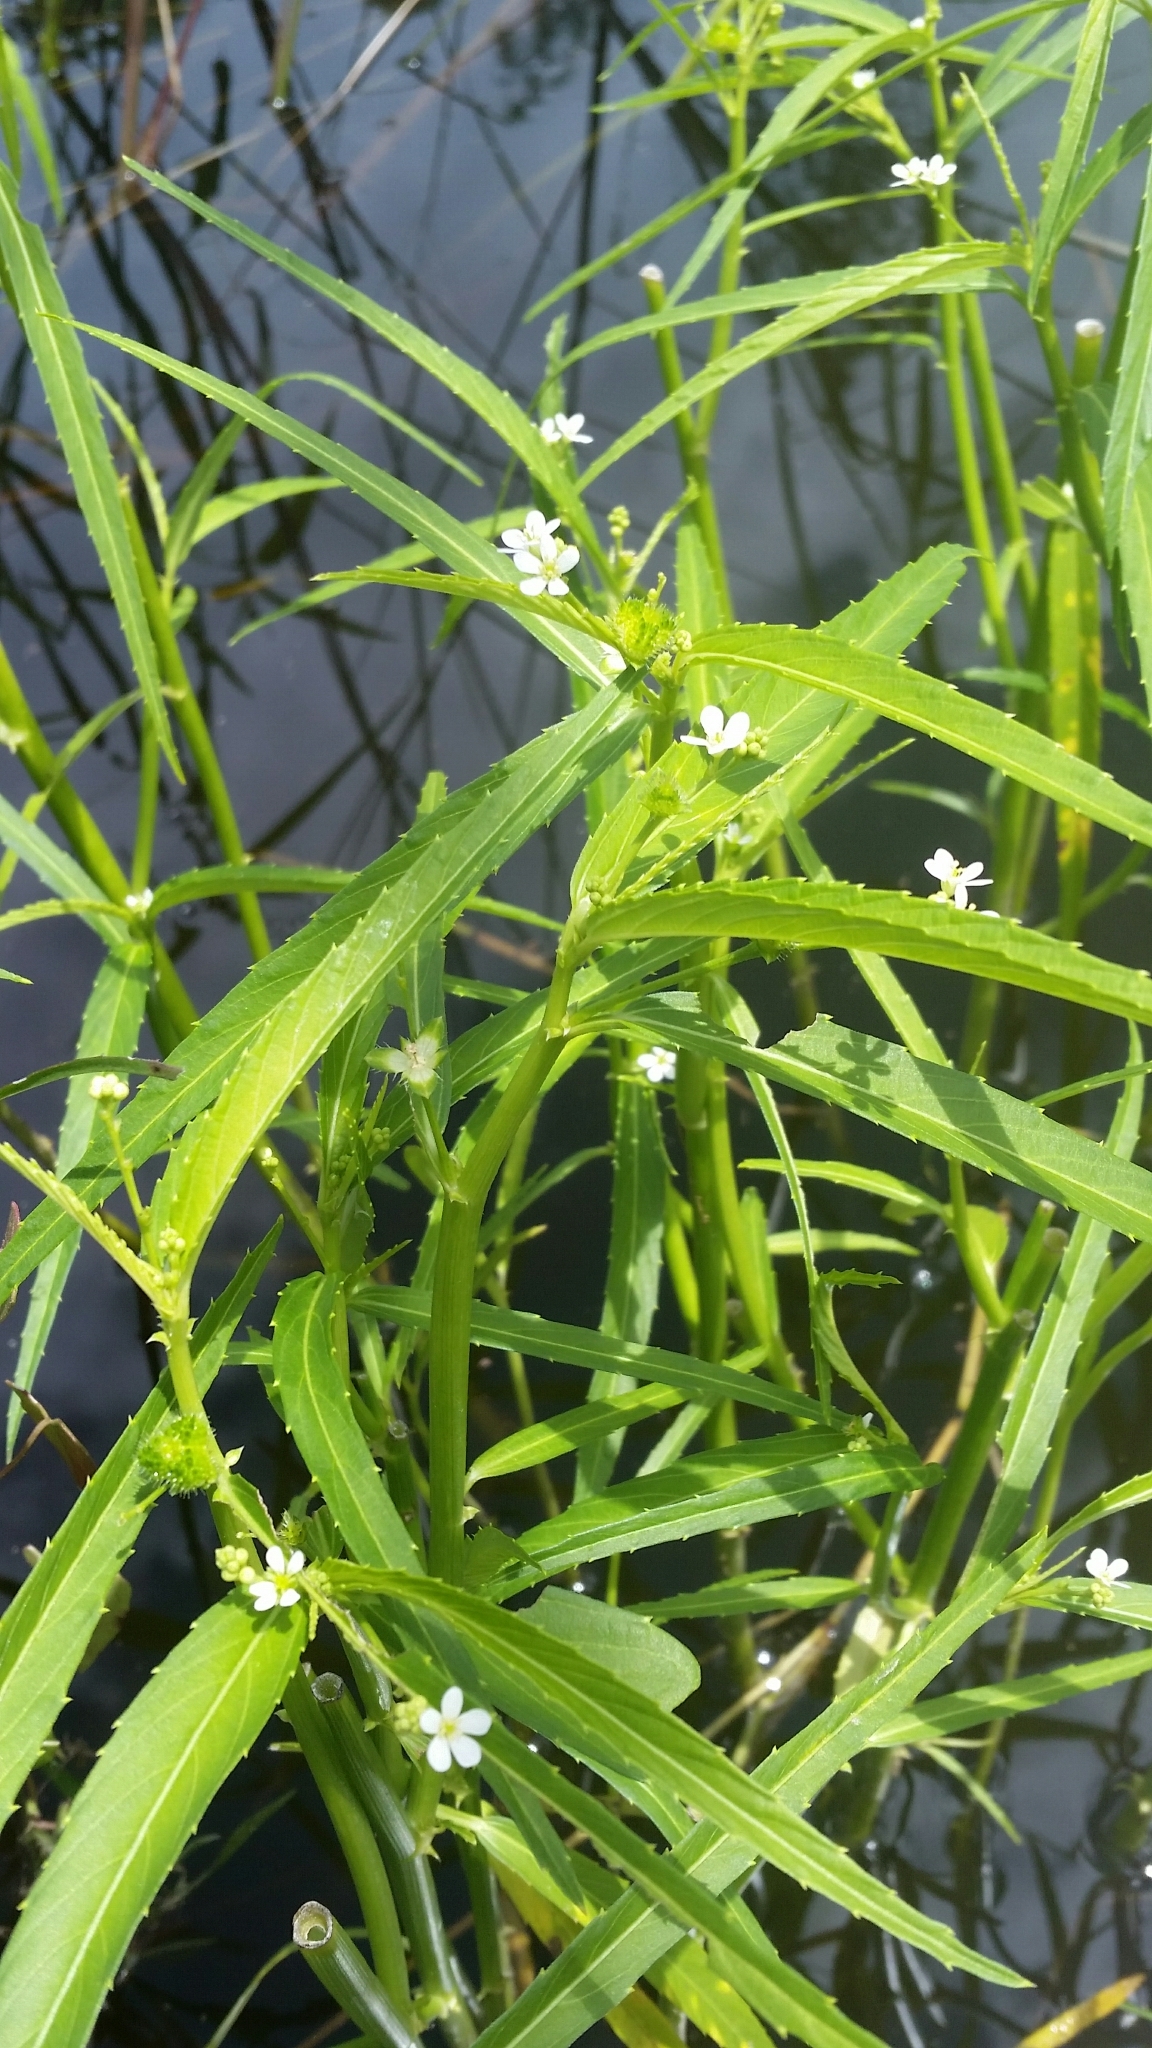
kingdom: Plantae
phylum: Tracheophyta
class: Magnoliopsida
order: Malpighiales
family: Euphorbiaceae
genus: Caperonia
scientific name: Caperonia castaneifolia
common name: Chestnutleaf false croton
